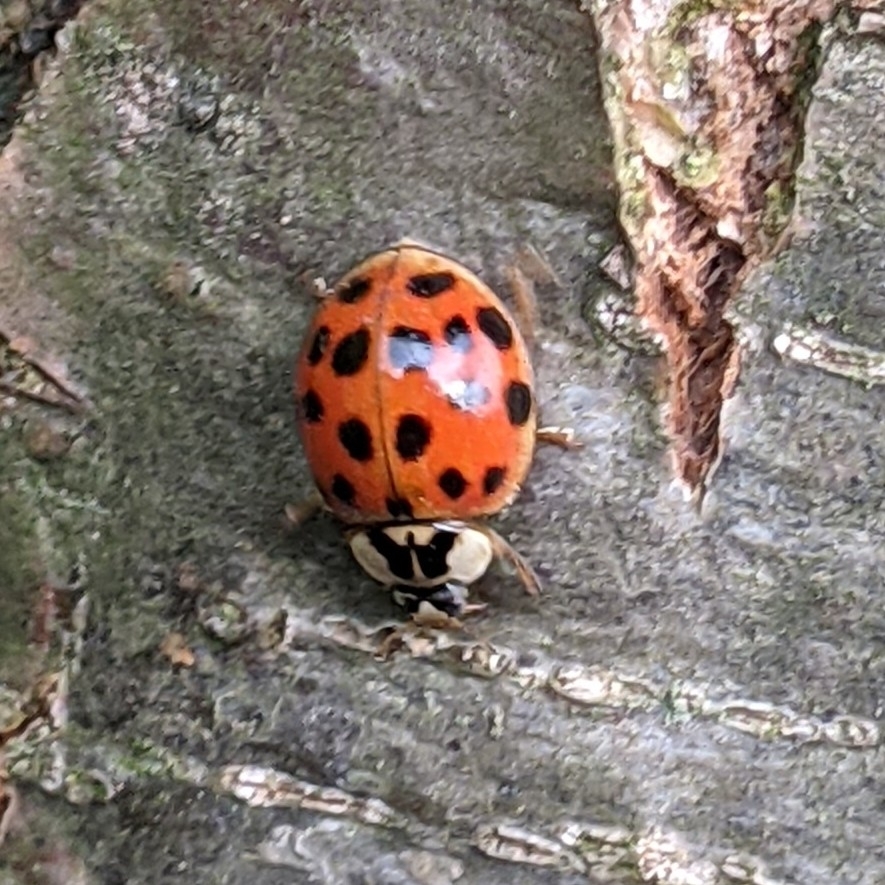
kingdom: Animalia
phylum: Arthropoda
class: Insecta
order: Coleoptera
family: Coccinellidae
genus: Harmonia
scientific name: Harmonia axyridis
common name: Harlequin ladybird
